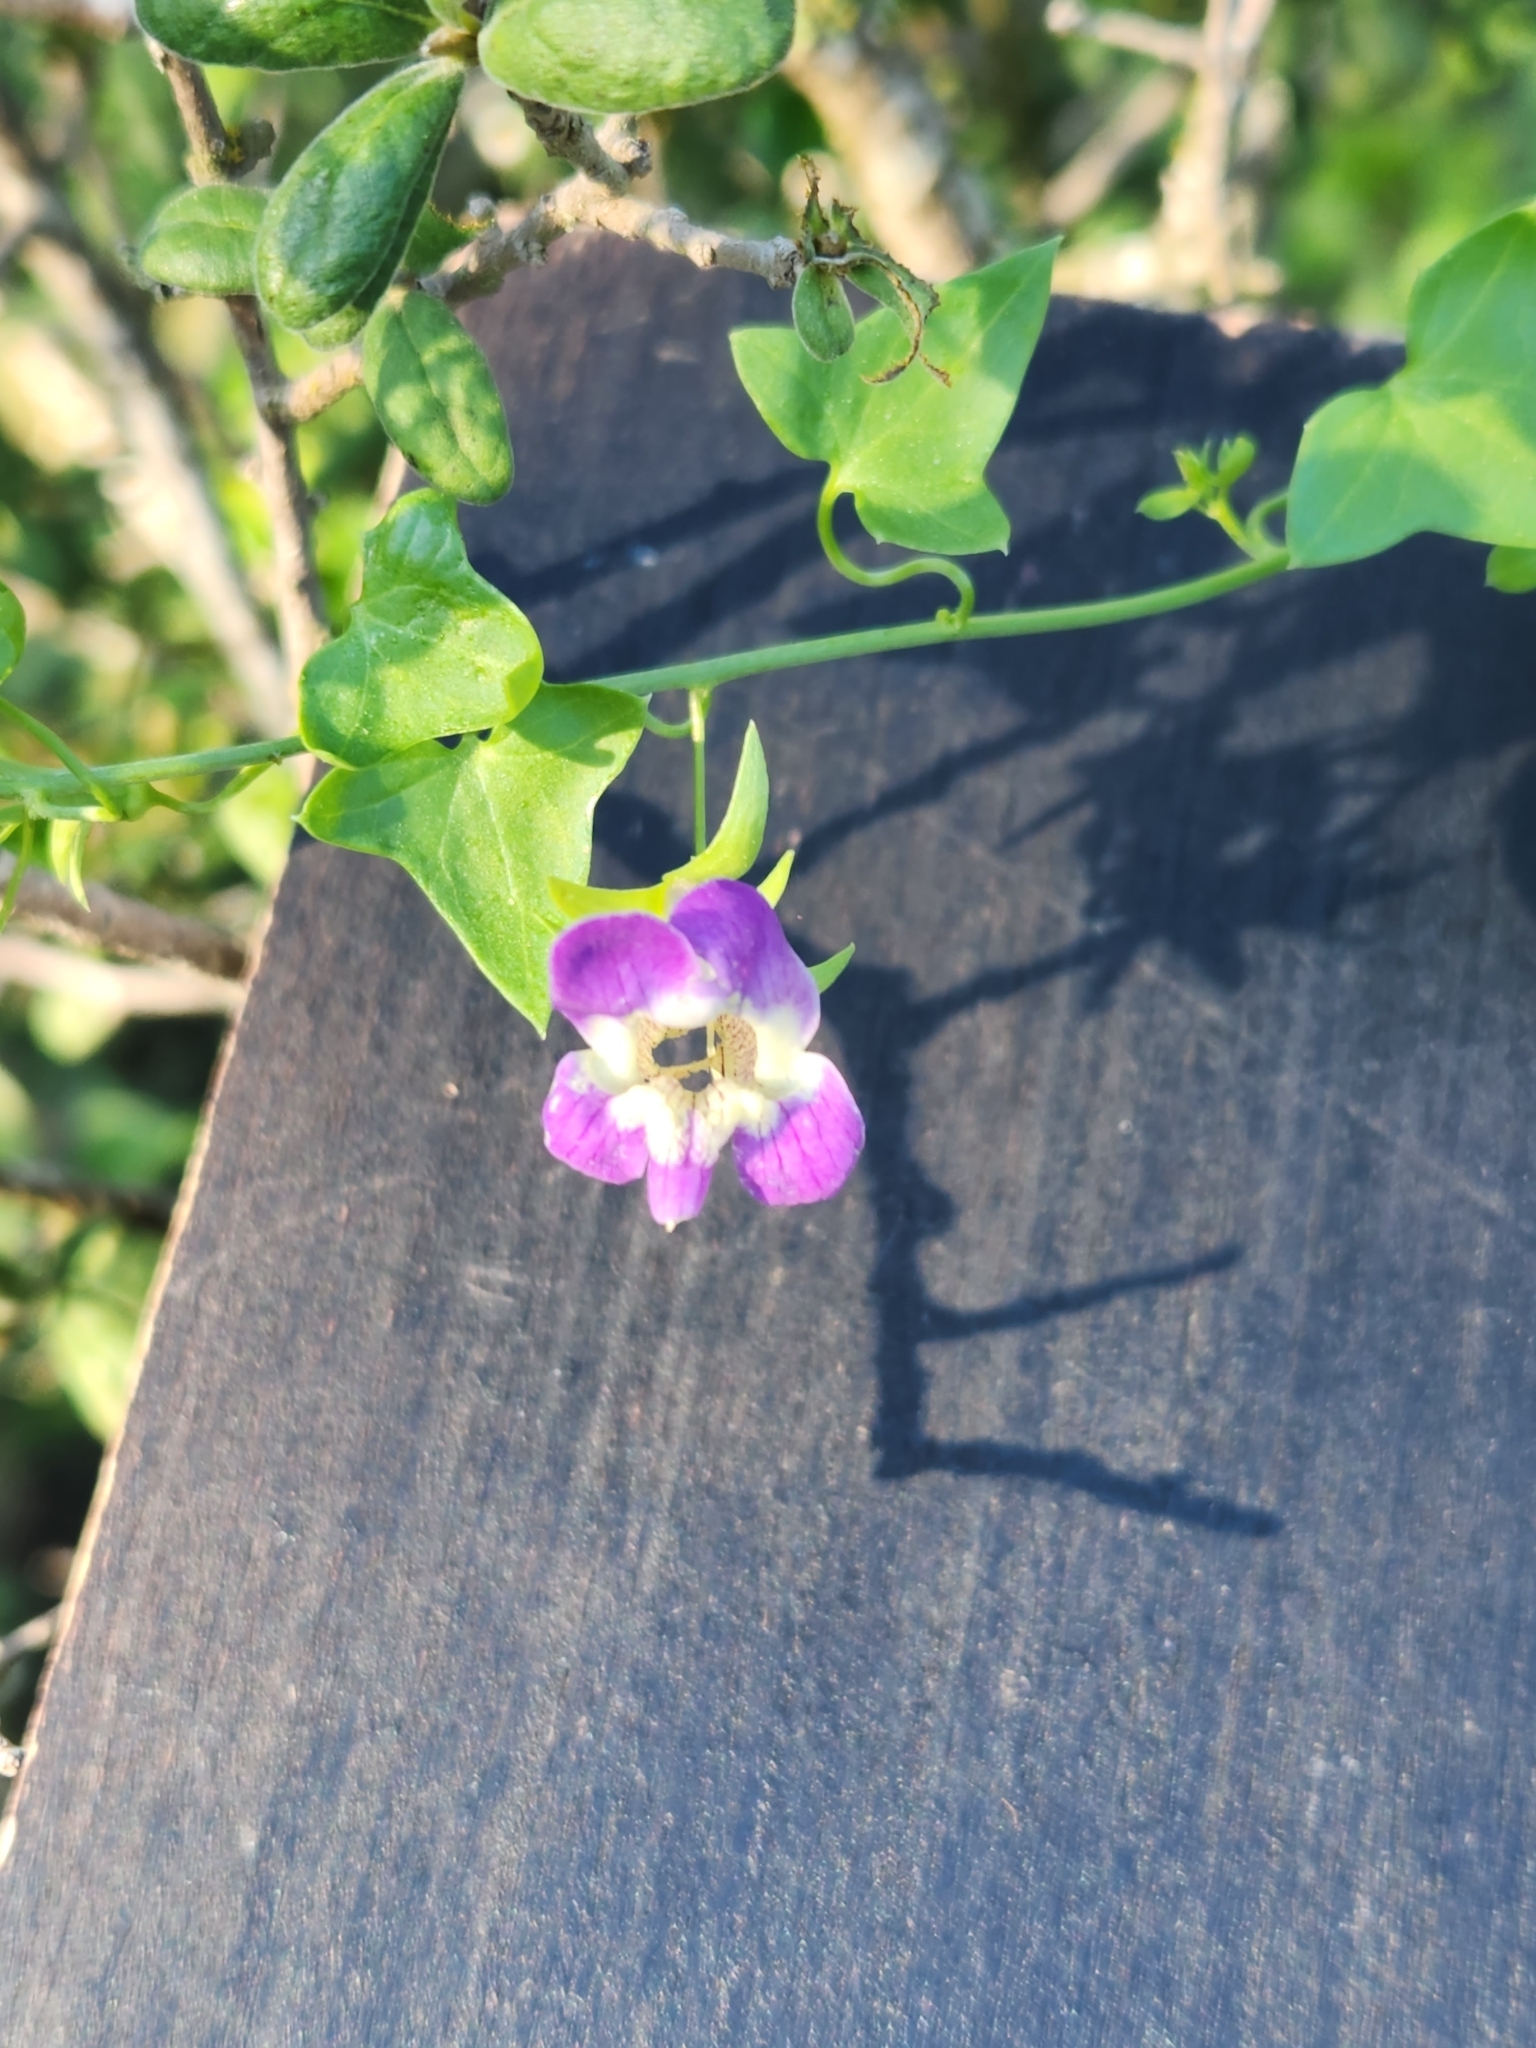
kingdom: Plantae
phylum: Tracheophyta
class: Magnoliopsida
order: Lamiales
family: Plantaginaceae
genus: Maurandella
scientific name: Maurandella antirrhiniflora
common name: Violet twining-snapdragon
